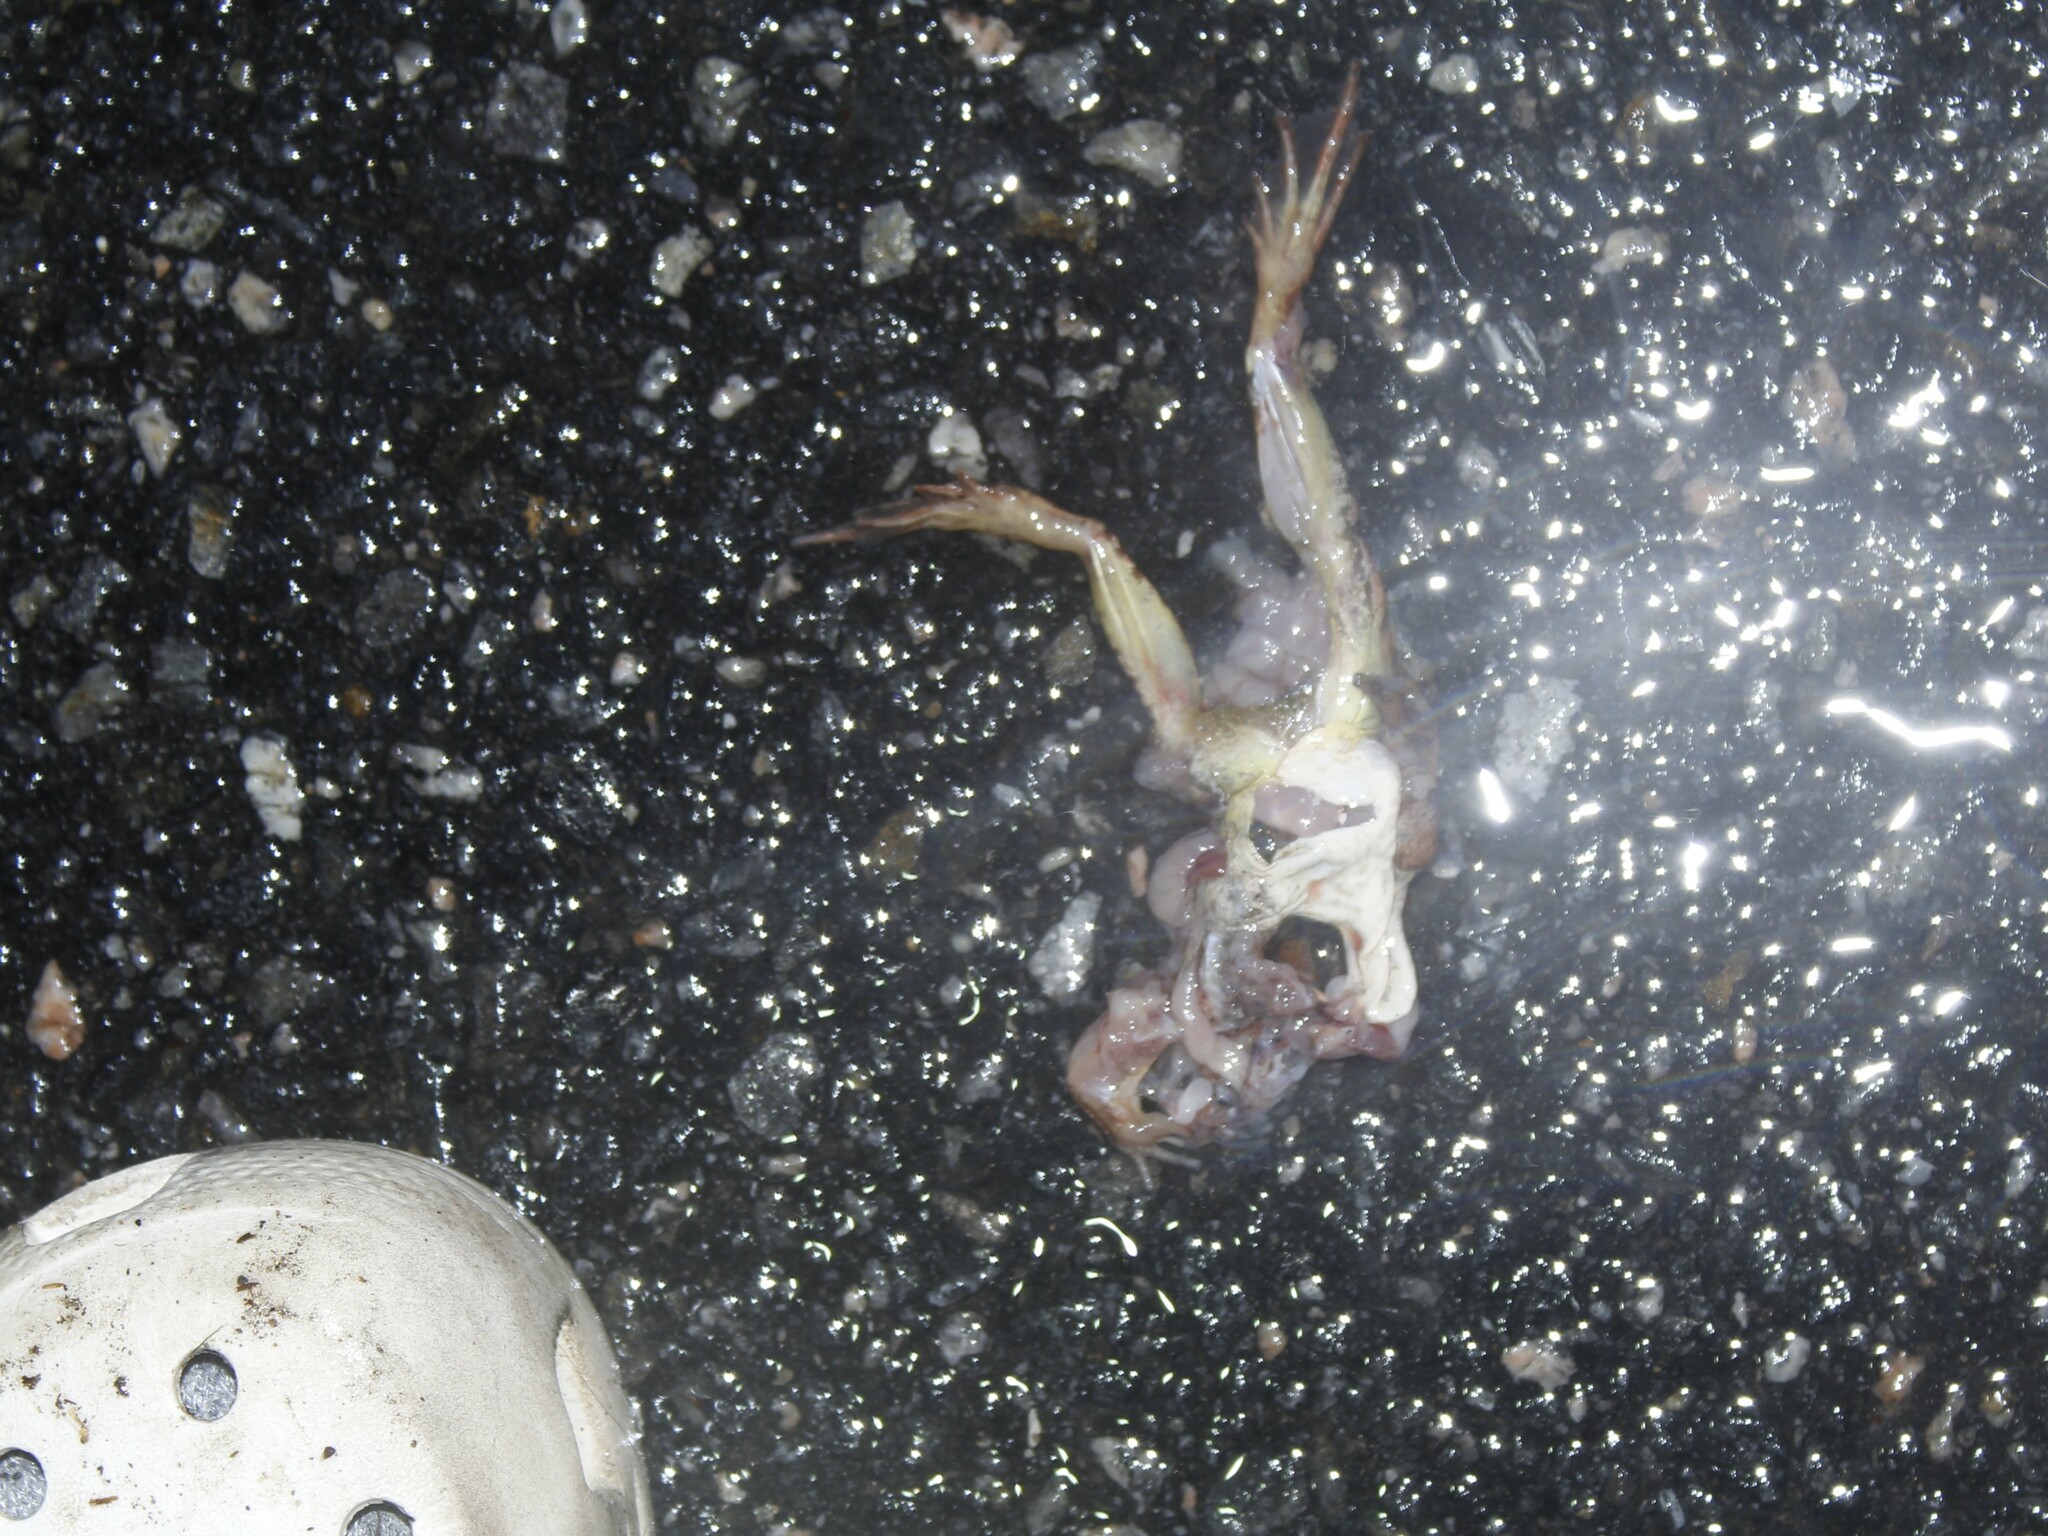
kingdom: Animalia
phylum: Chordata
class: Amphibia
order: Anura
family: Ranidae
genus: Lithobates
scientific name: Lithobates sylvaticus
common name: Wood frog
